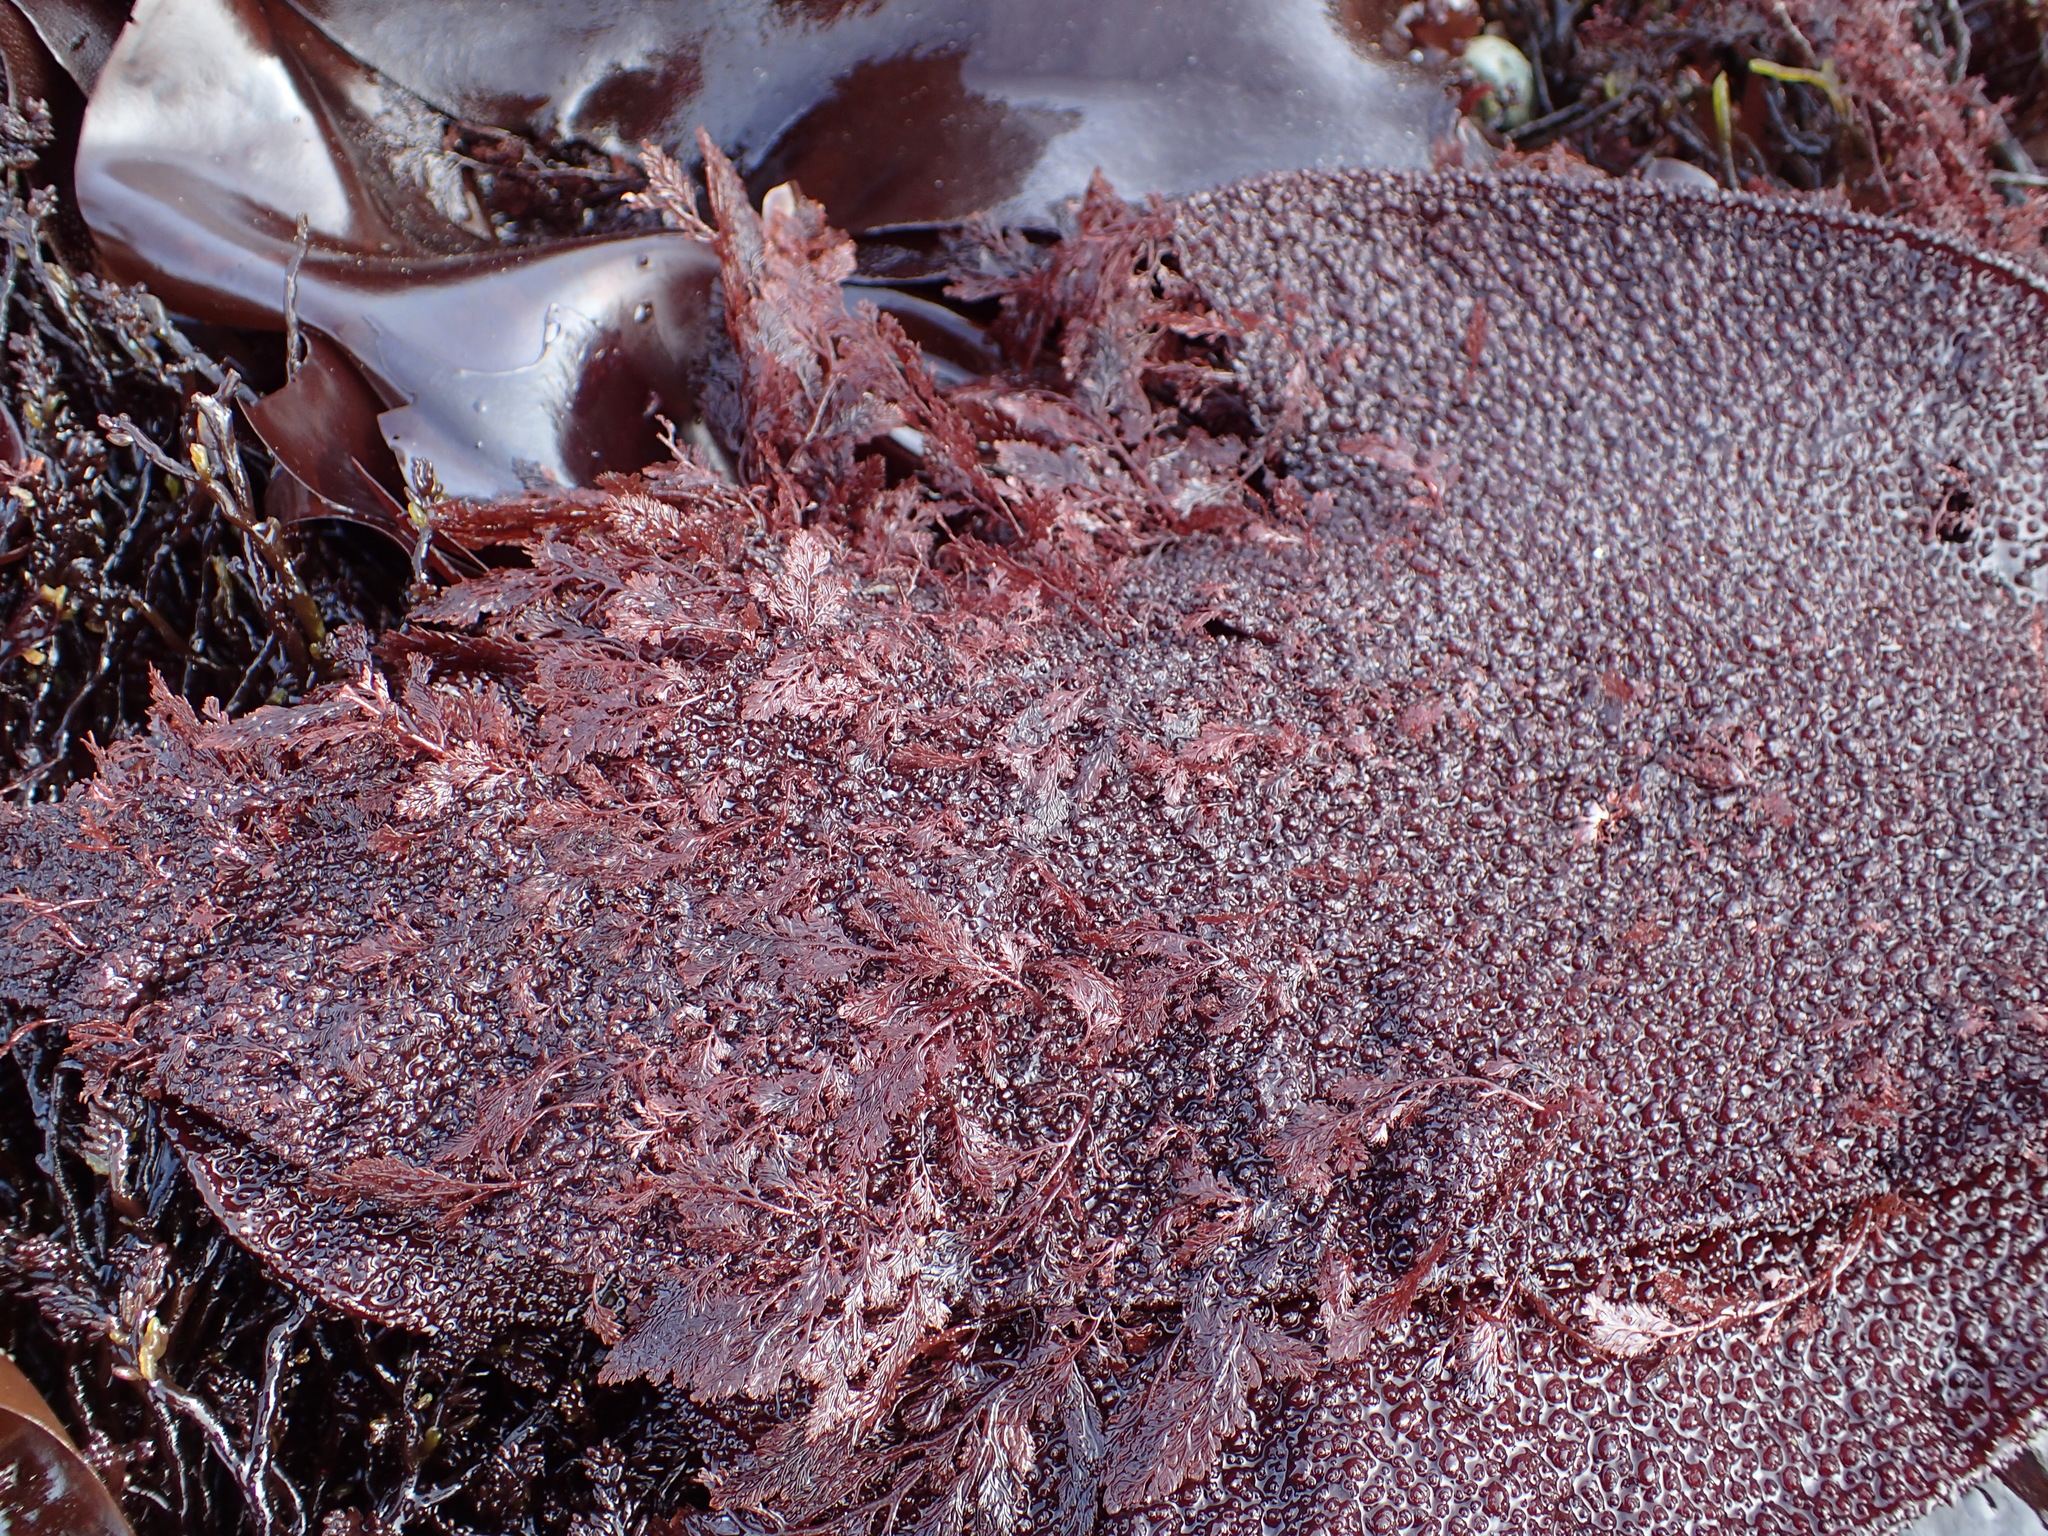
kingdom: Plantae
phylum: Rhodophyta
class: Florideophyceae
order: Ceramiales
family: Ceramiaceae
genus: Microcladia
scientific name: Microcladia coulteri
